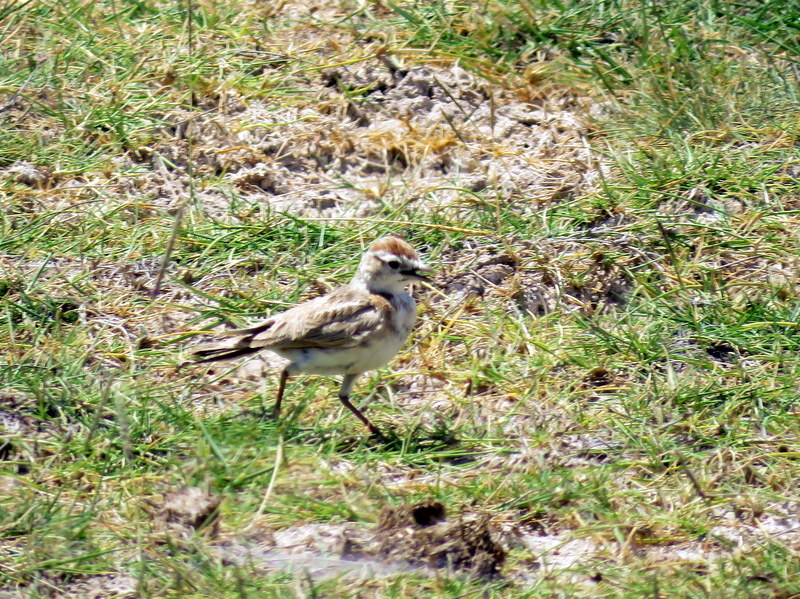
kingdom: Animalia
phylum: Chordata
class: Aves
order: Passeriformes
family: Alaudidae
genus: Calandrella
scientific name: Calandrella cinerea
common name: Red-capped lark
